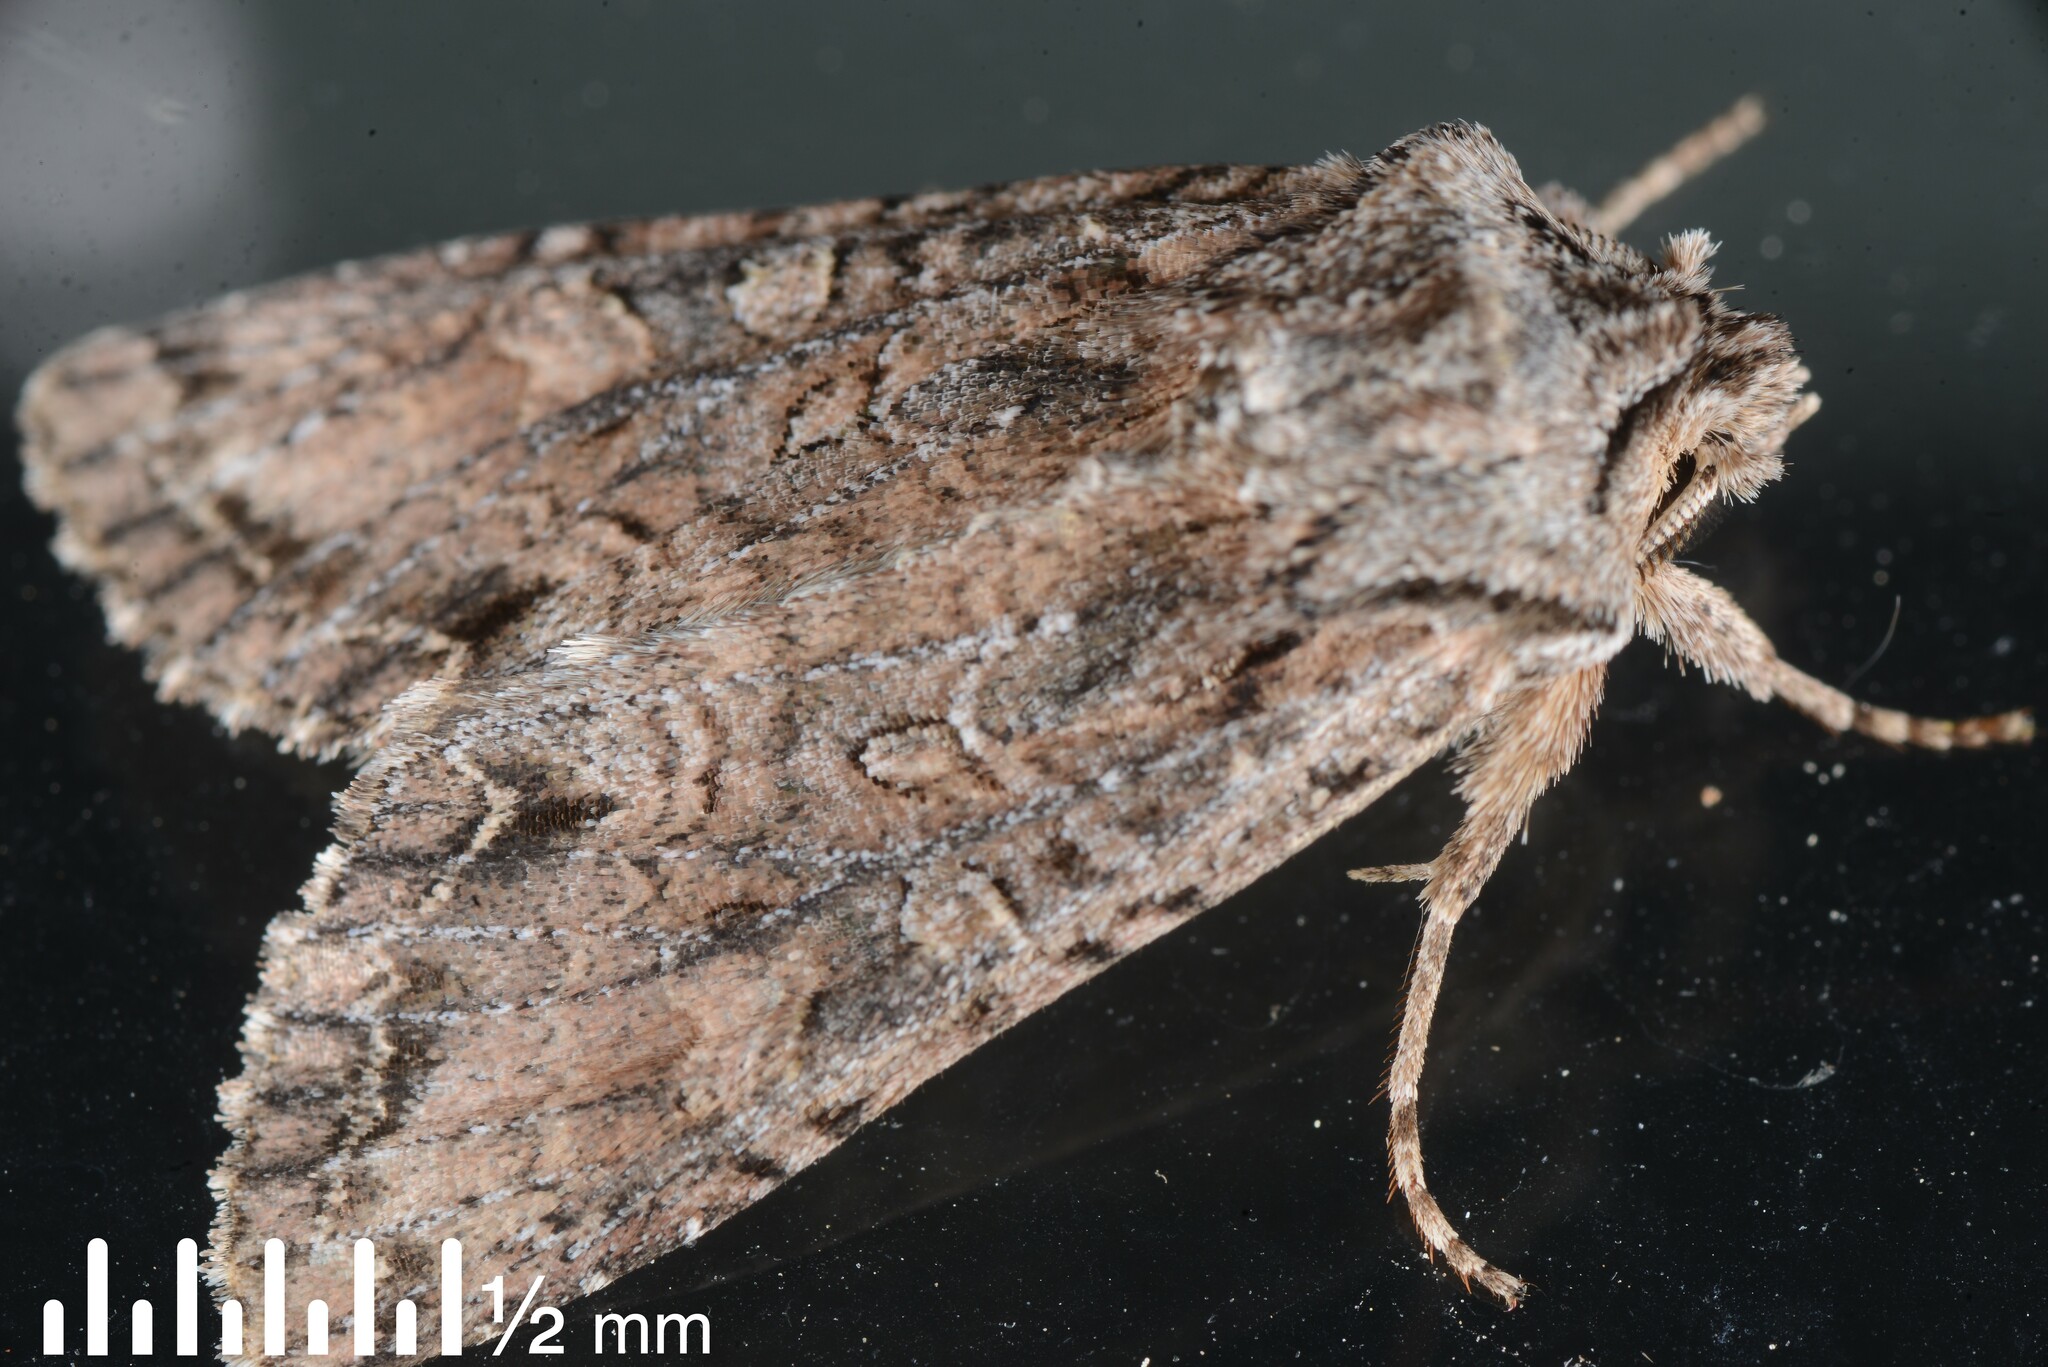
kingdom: Animalia
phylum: Arthropoda
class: Insecta
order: Lepidoptera
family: Noctuidae
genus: Ichneutica
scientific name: Ichneutica mutans
